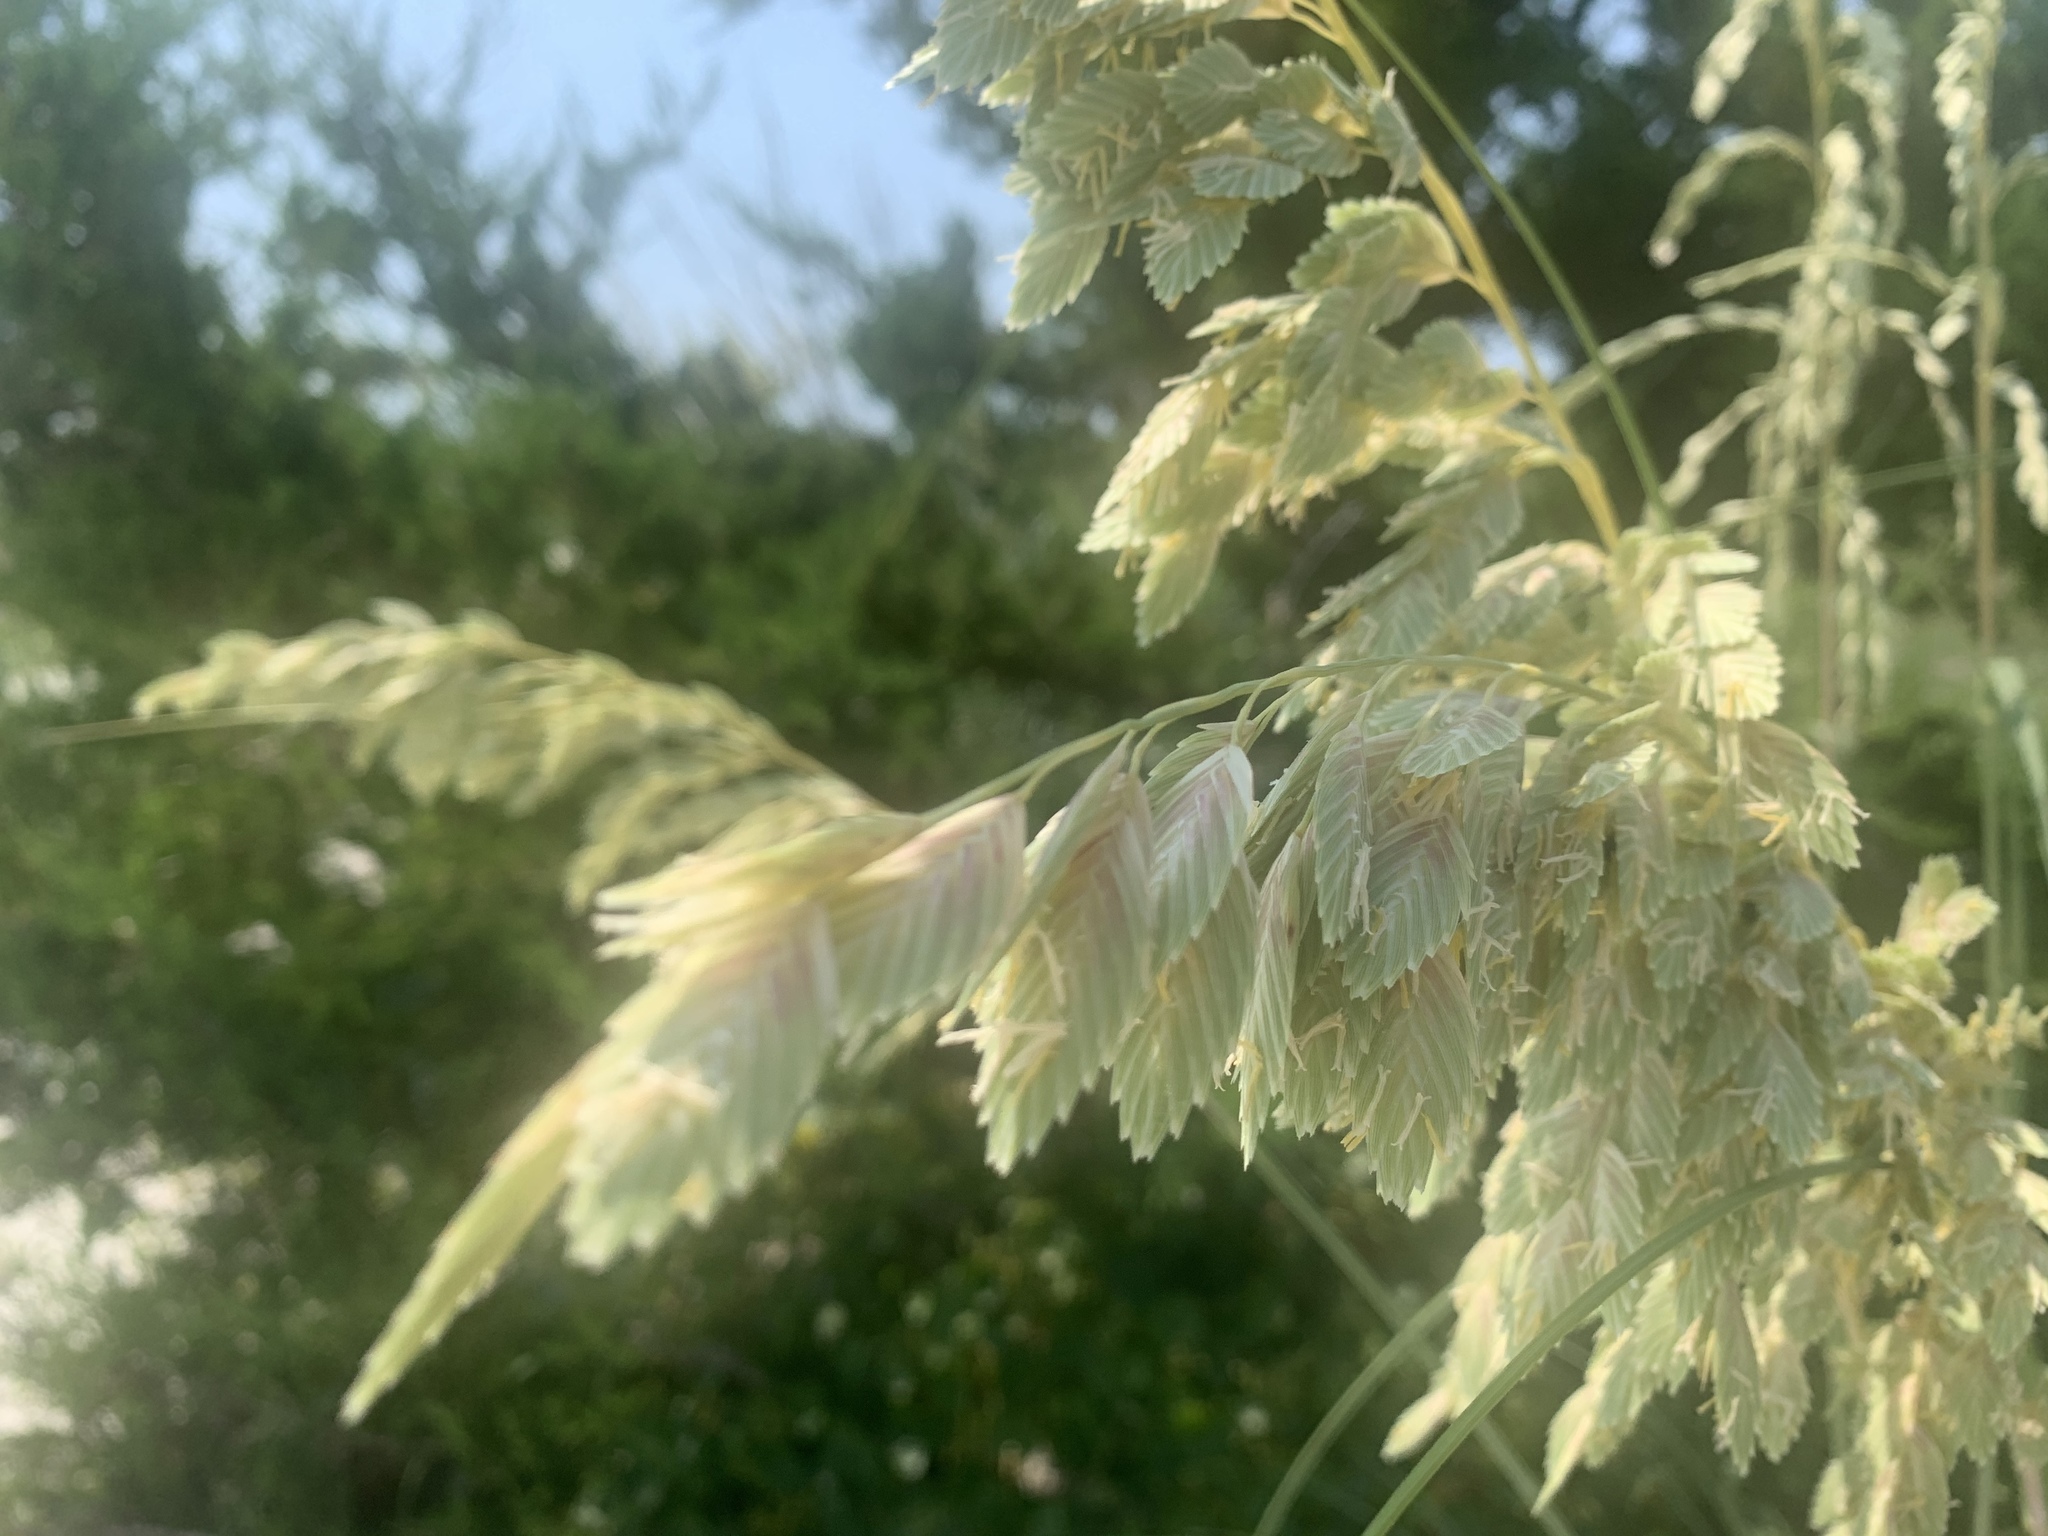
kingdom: Plantae
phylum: Tracheophyta
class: Liliopsida
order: Poales
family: Poaceae
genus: Uniola
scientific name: Uniola paniculata
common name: Seaside-oats
